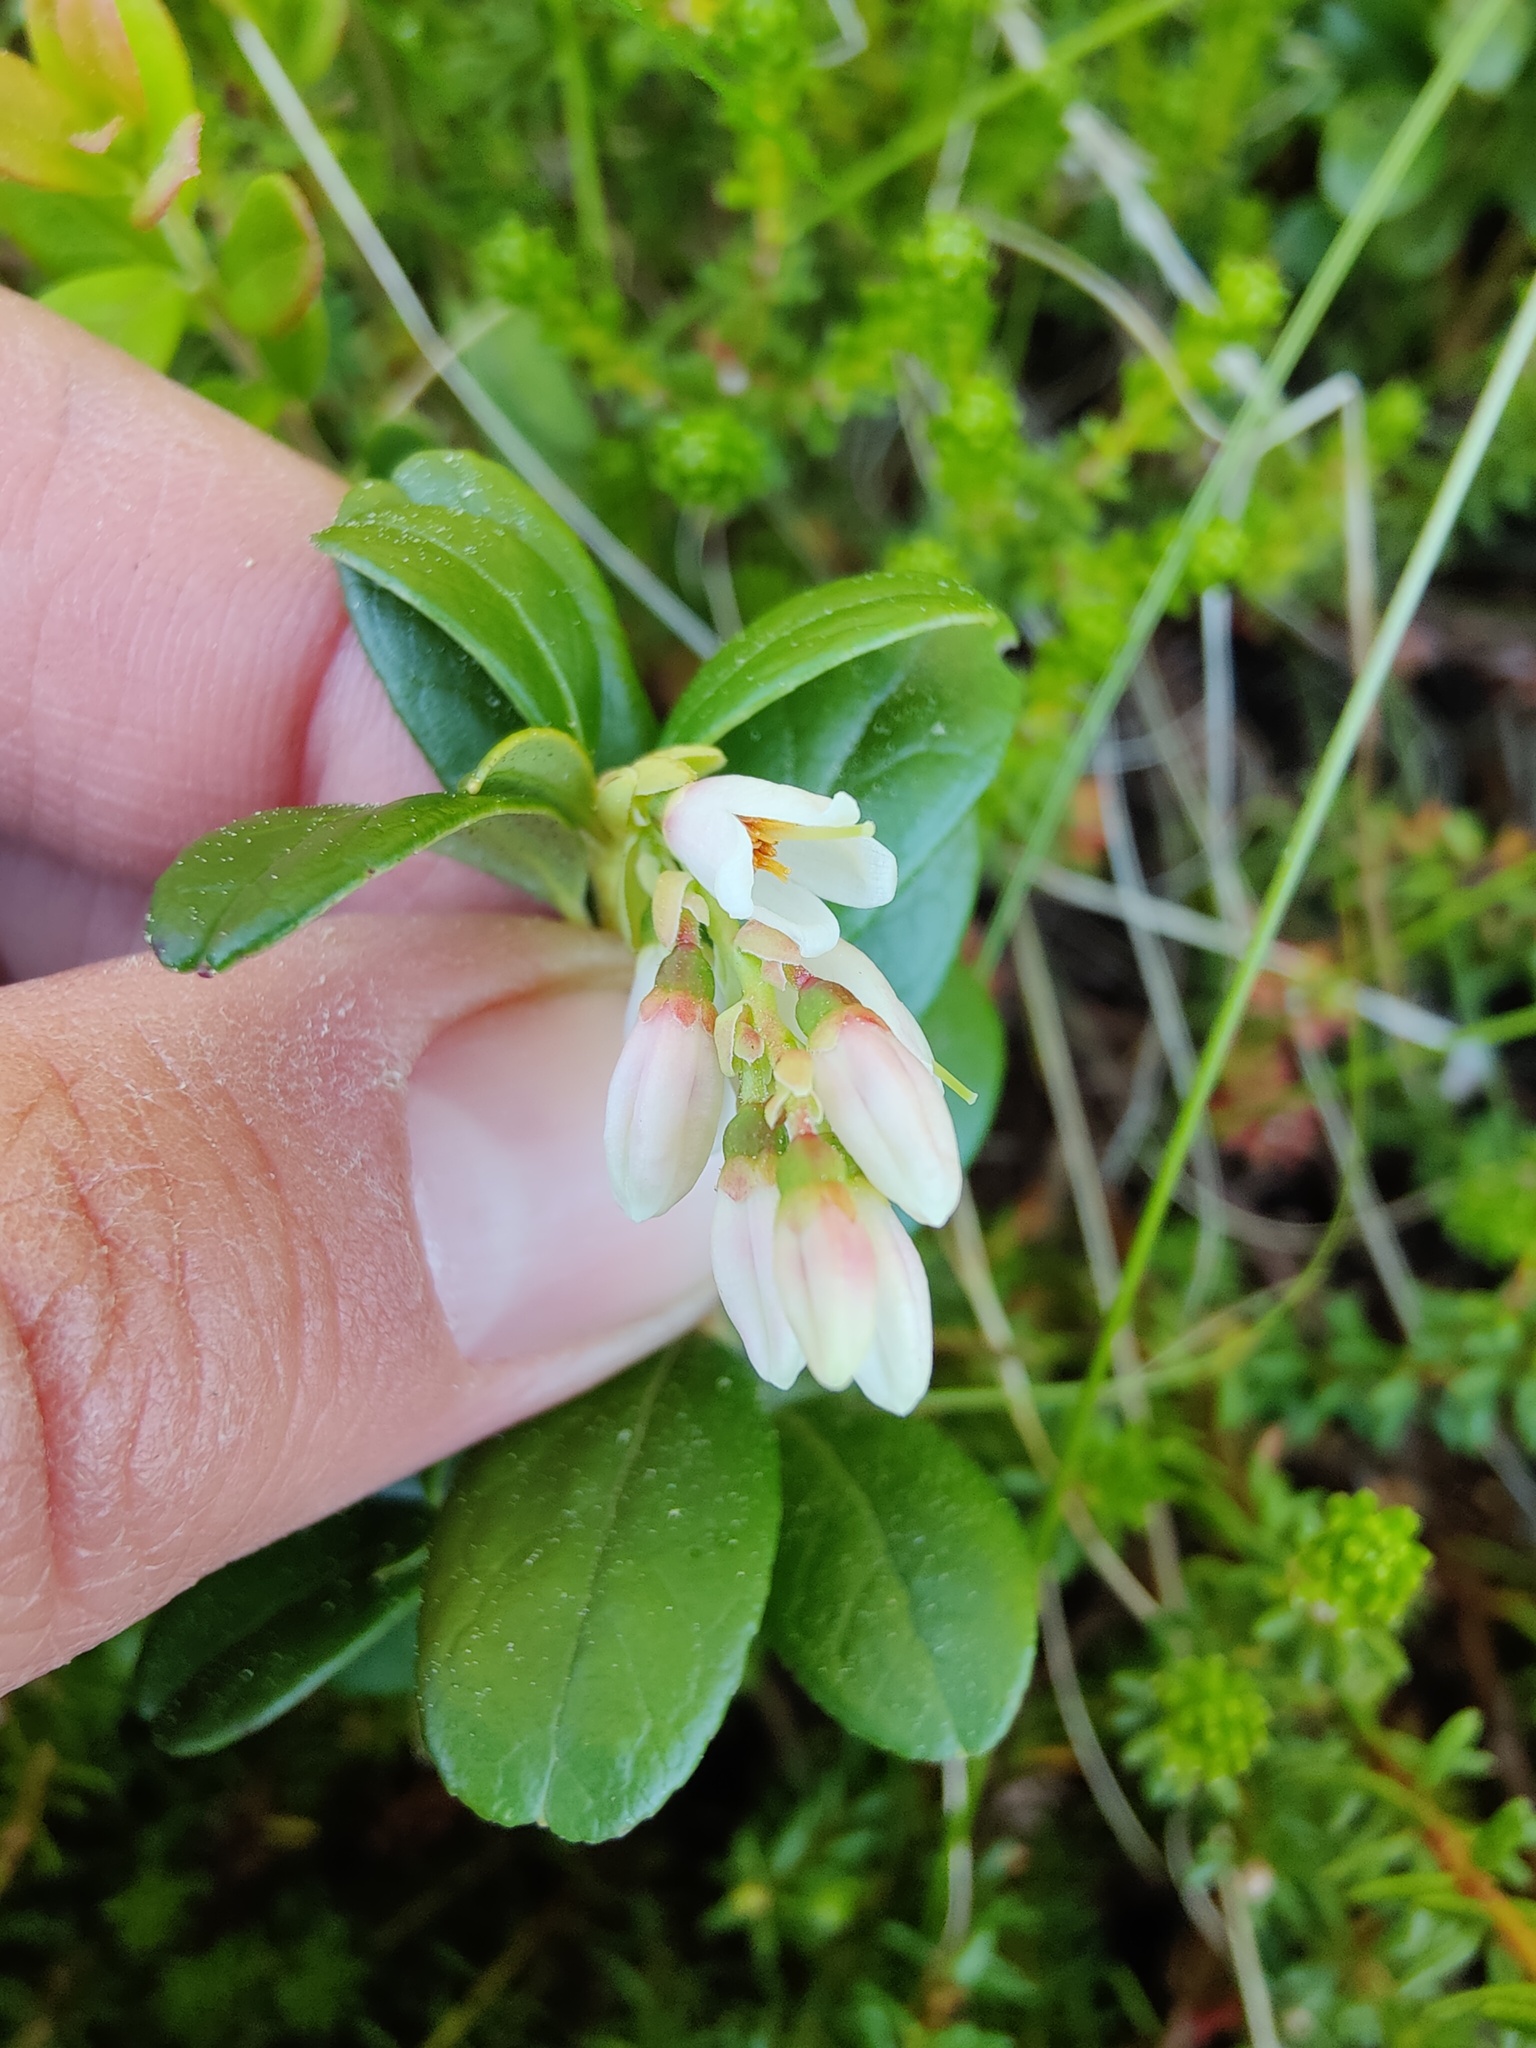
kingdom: Plantae
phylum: Tracheophyta
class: Magnoliopsida
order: Ericales
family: Ericaceae
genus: Vaccinium
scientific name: Vaccinium vitis-idaea
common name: Cowberry
